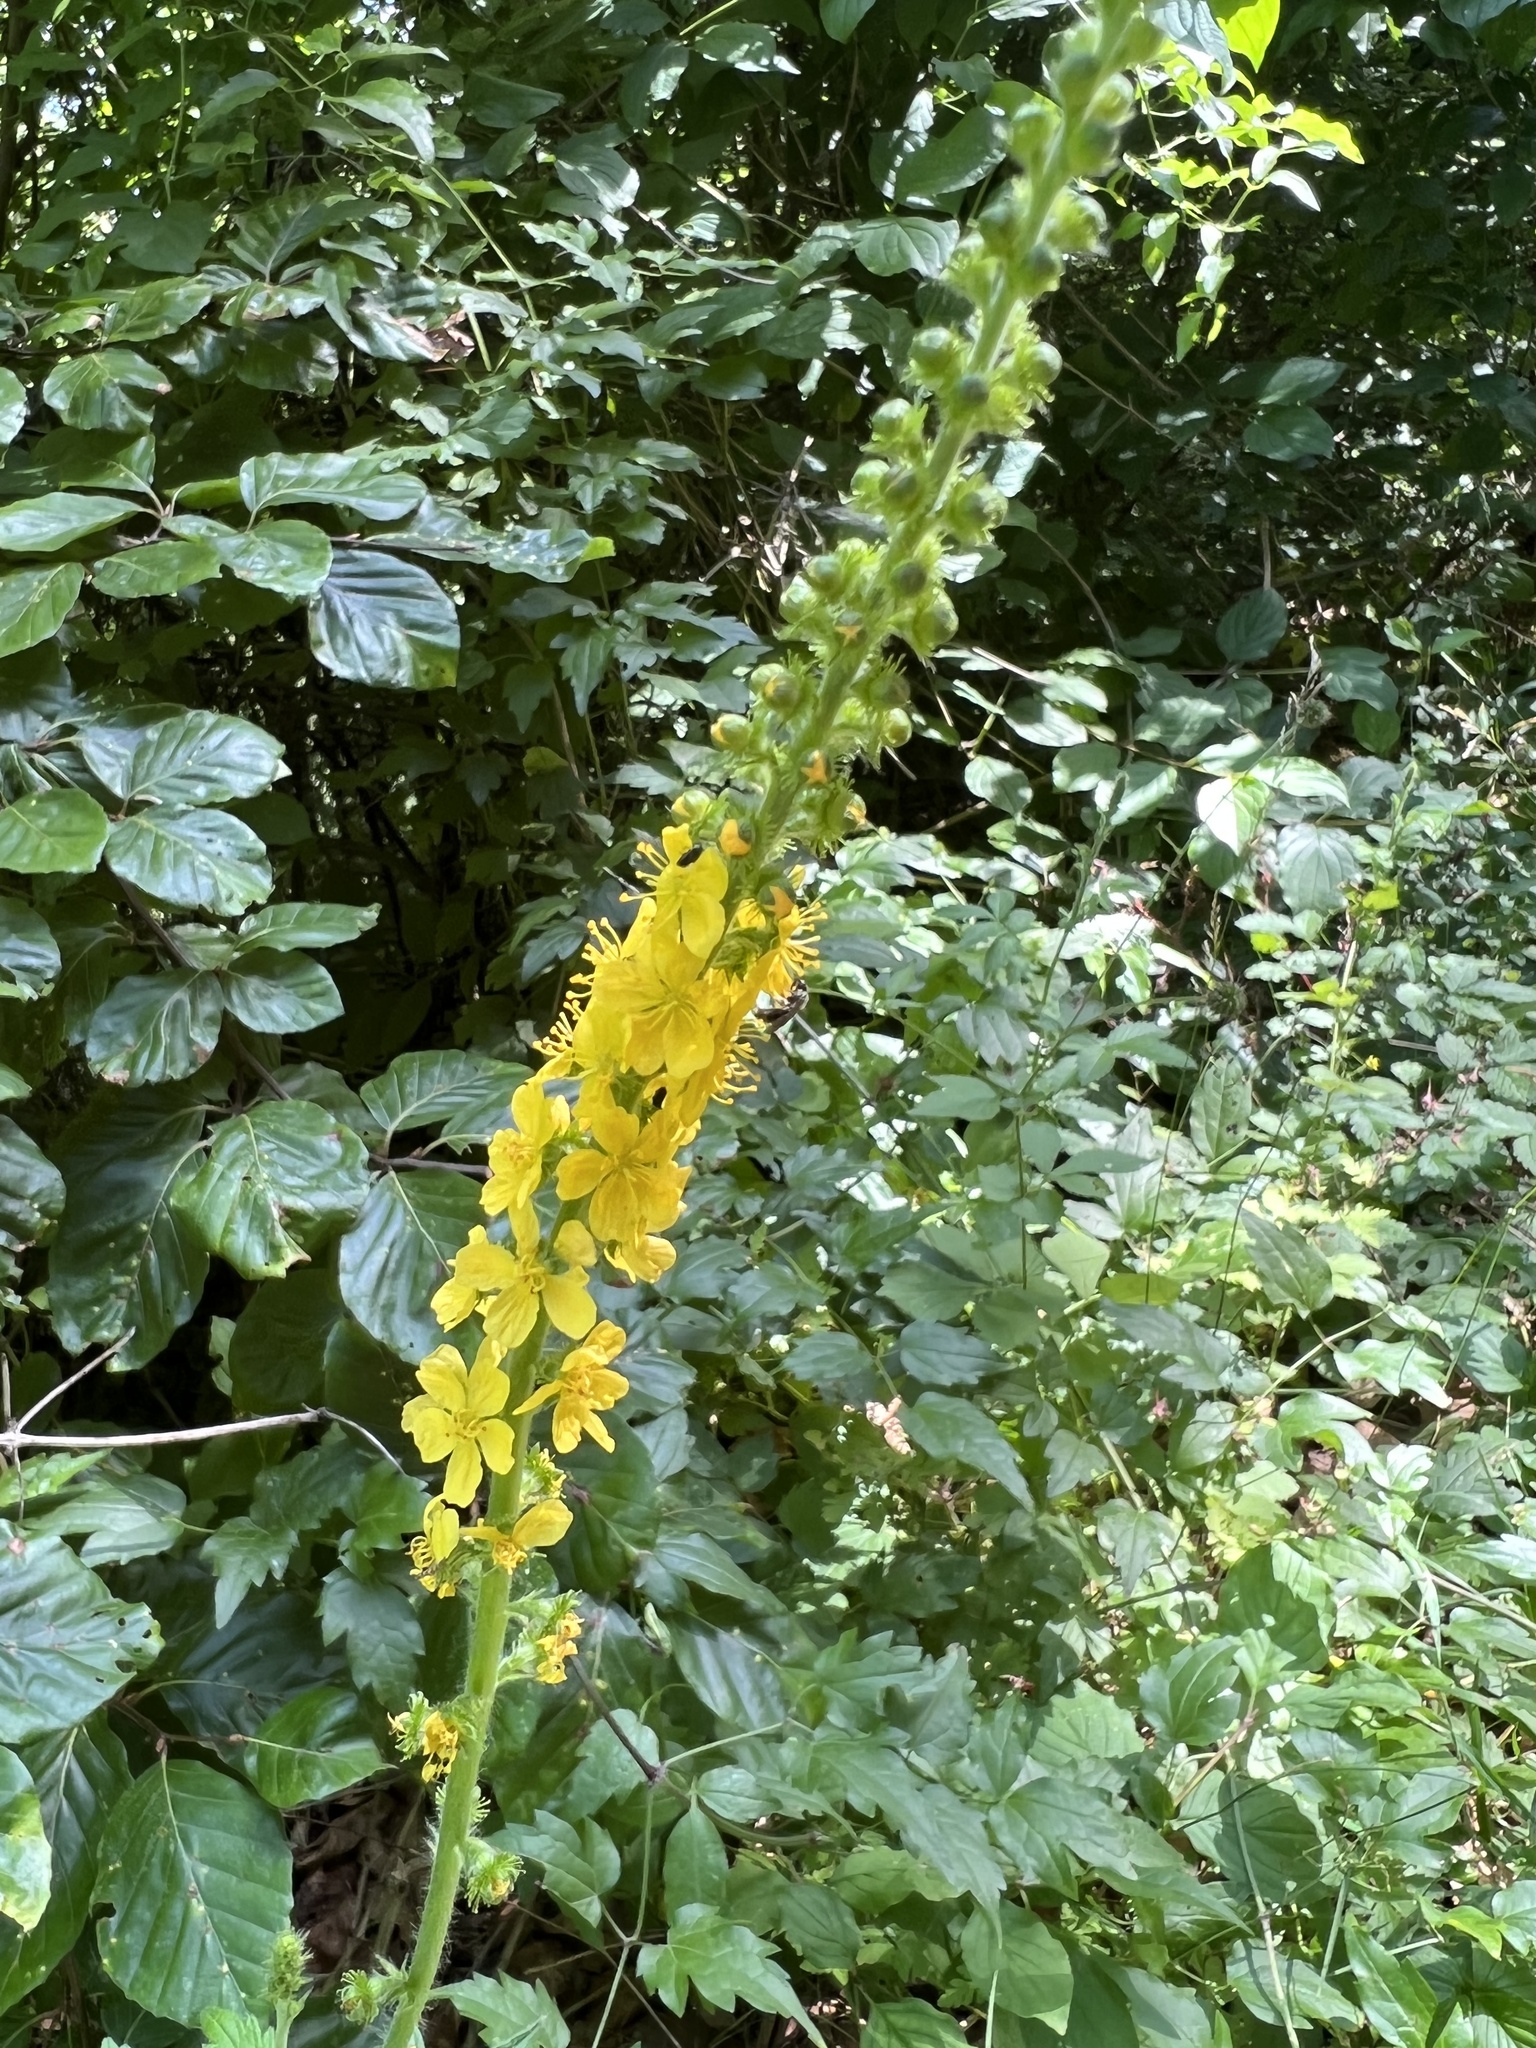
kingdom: Plantae
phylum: Tracheophyta
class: Magnoliopsida
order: Rosales
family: Rosaceae
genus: Agrimonia
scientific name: Agrimonia eupatoria
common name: Agrimony
